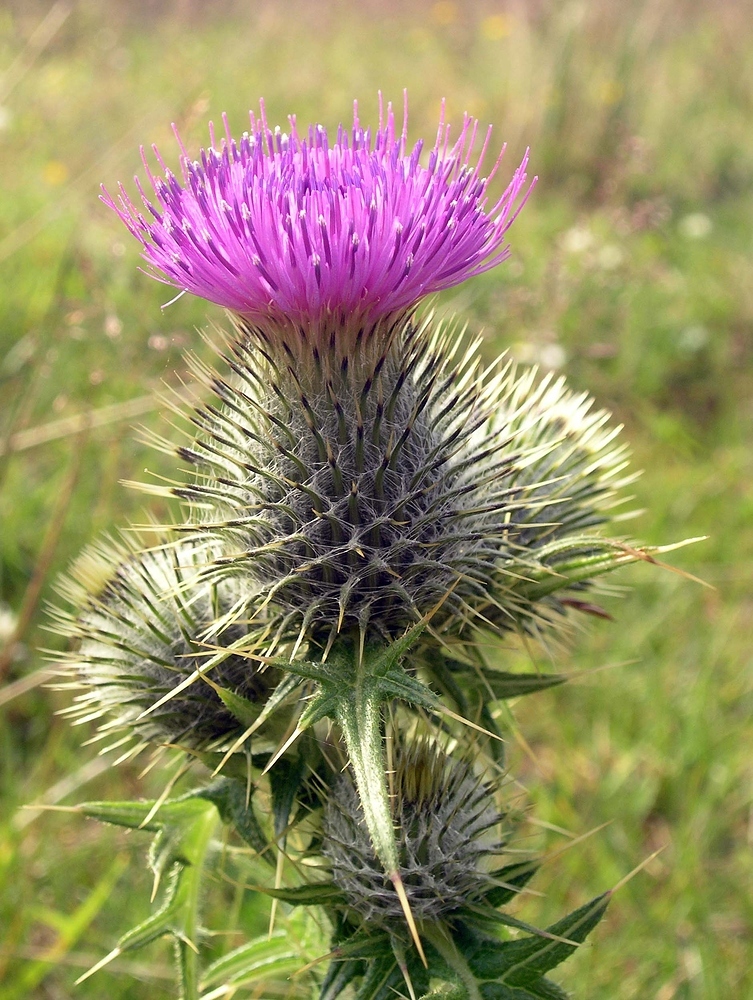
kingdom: Plantae
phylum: Tracheophyta
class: Magnoliopsida
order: Asterales
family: Asteraceae
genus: Cirsium
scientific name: Cirsium vulgare
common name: Bull thistle
